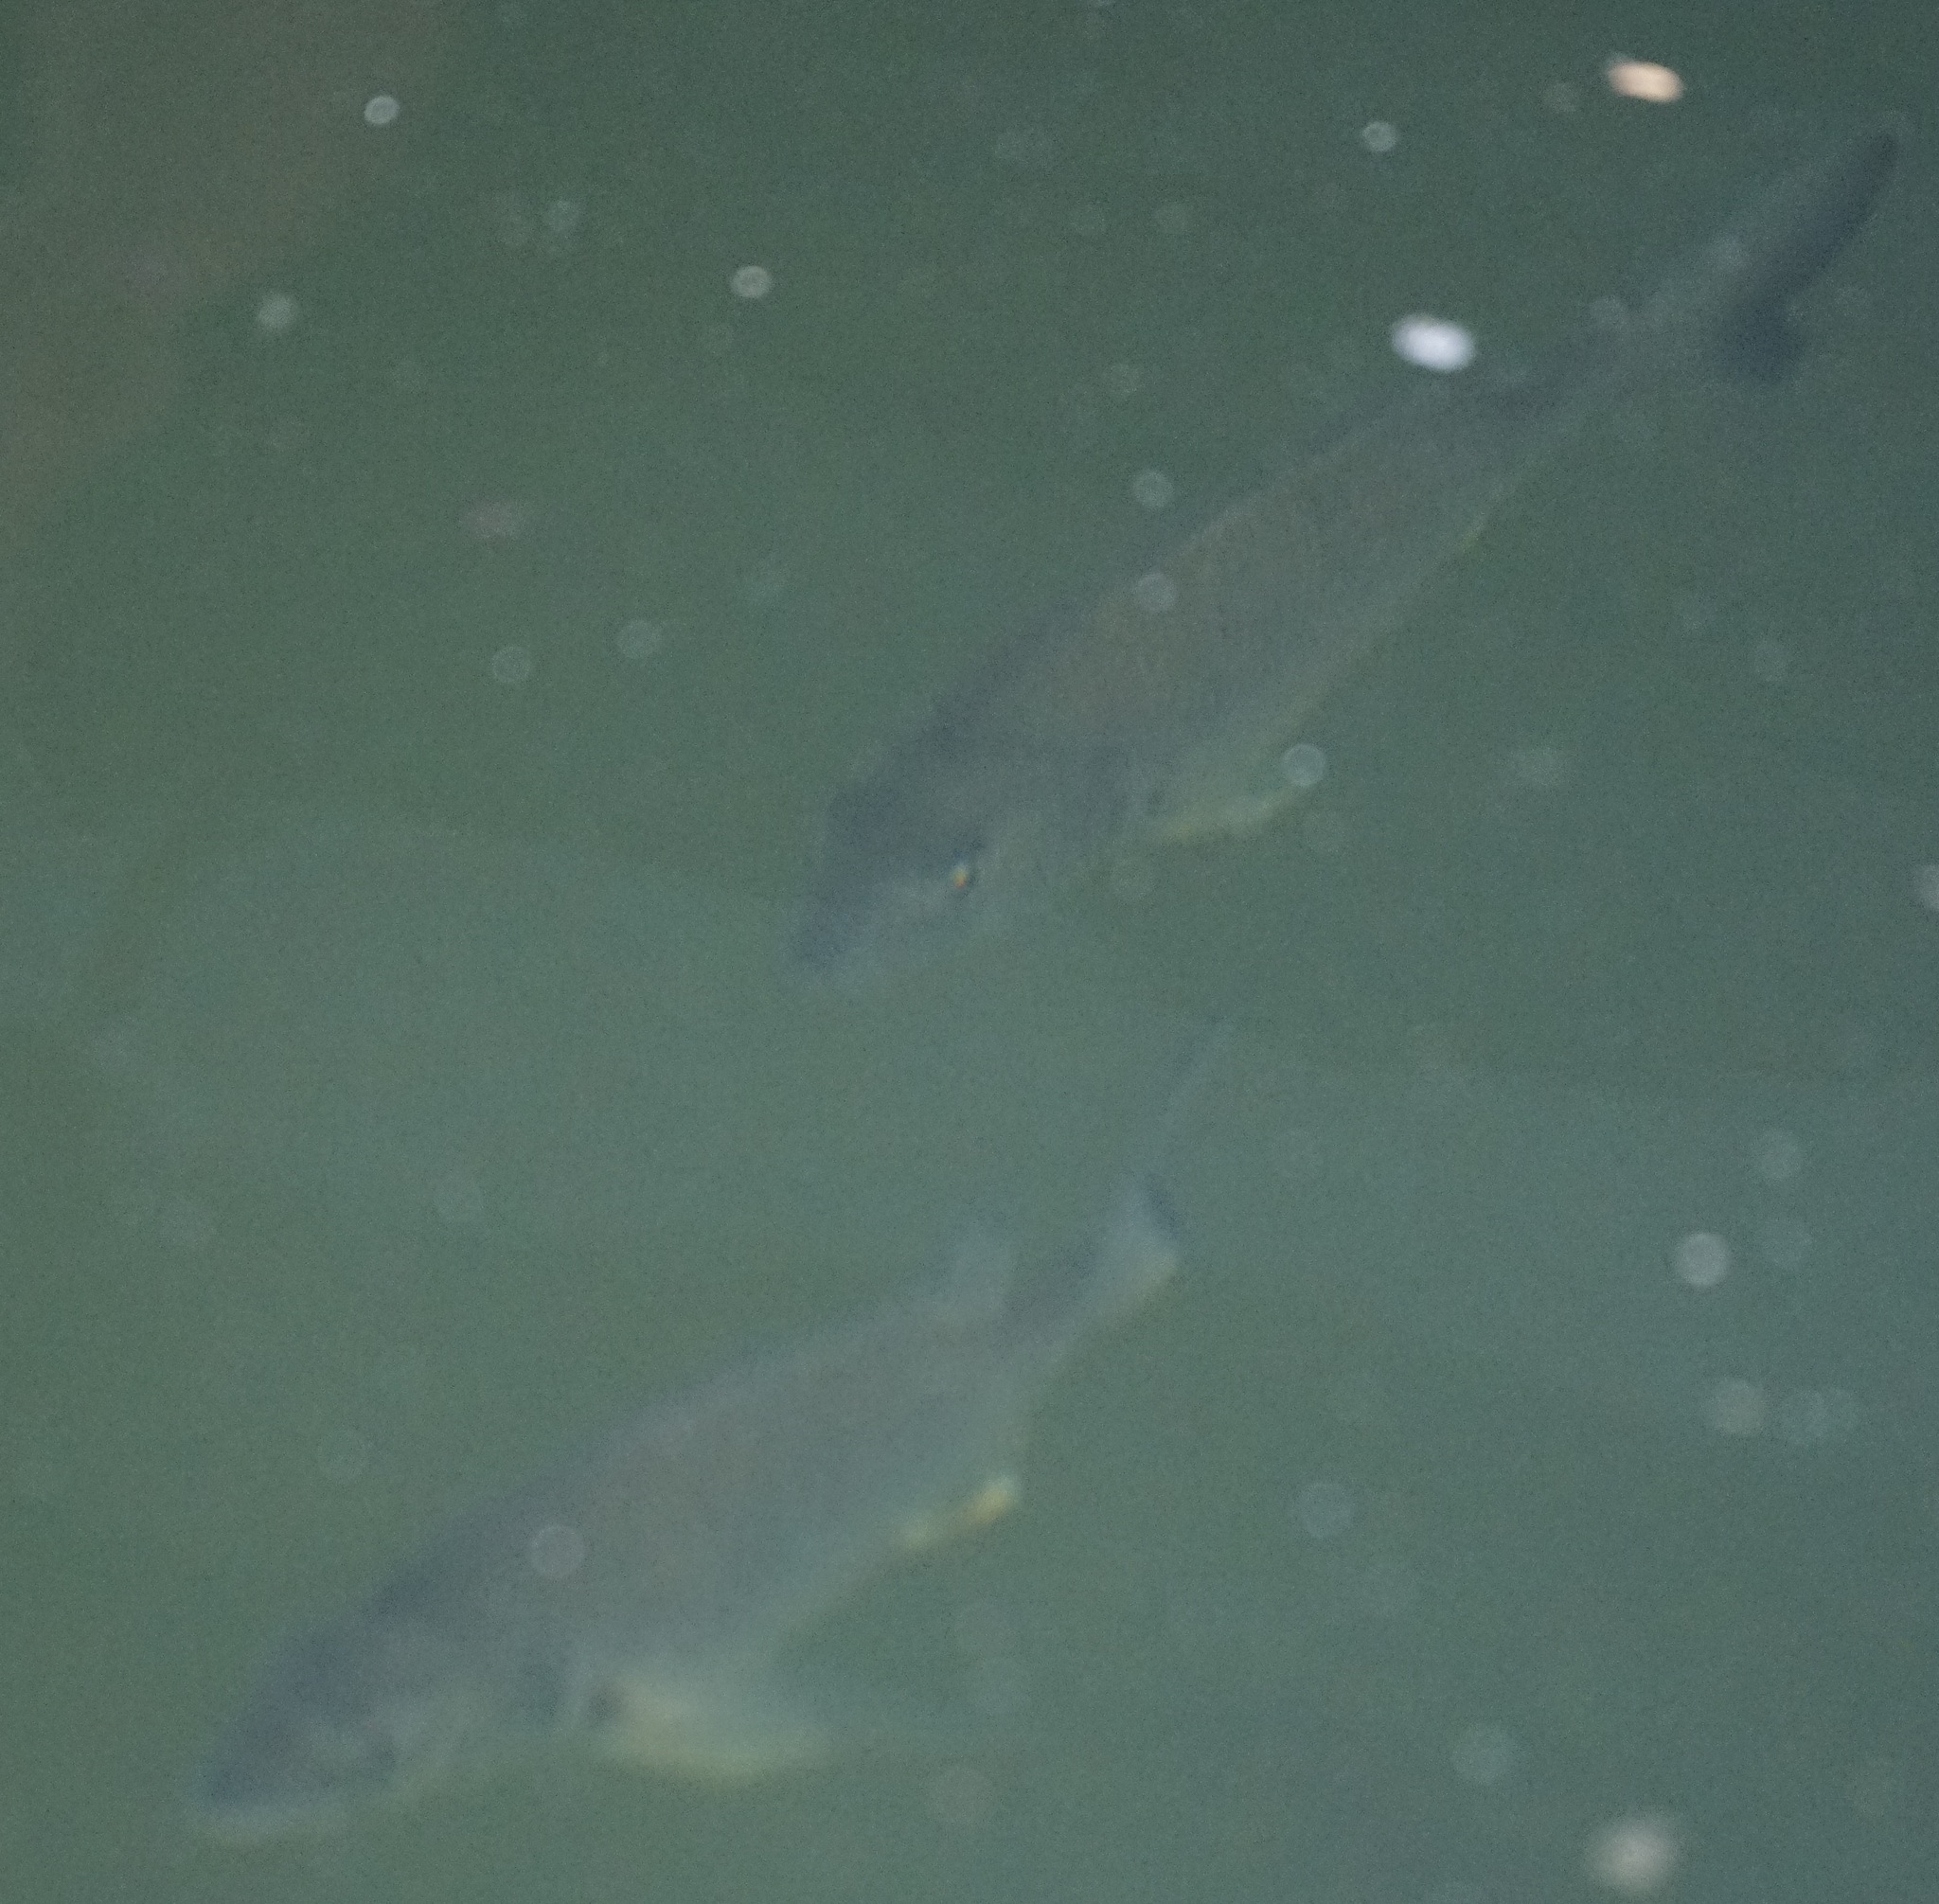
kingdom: Animalia
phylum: Chordata
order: Perciformes
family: Sparidae
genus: Acanthopagrus
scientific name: Acanthopagrus australis
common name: Surf bream
